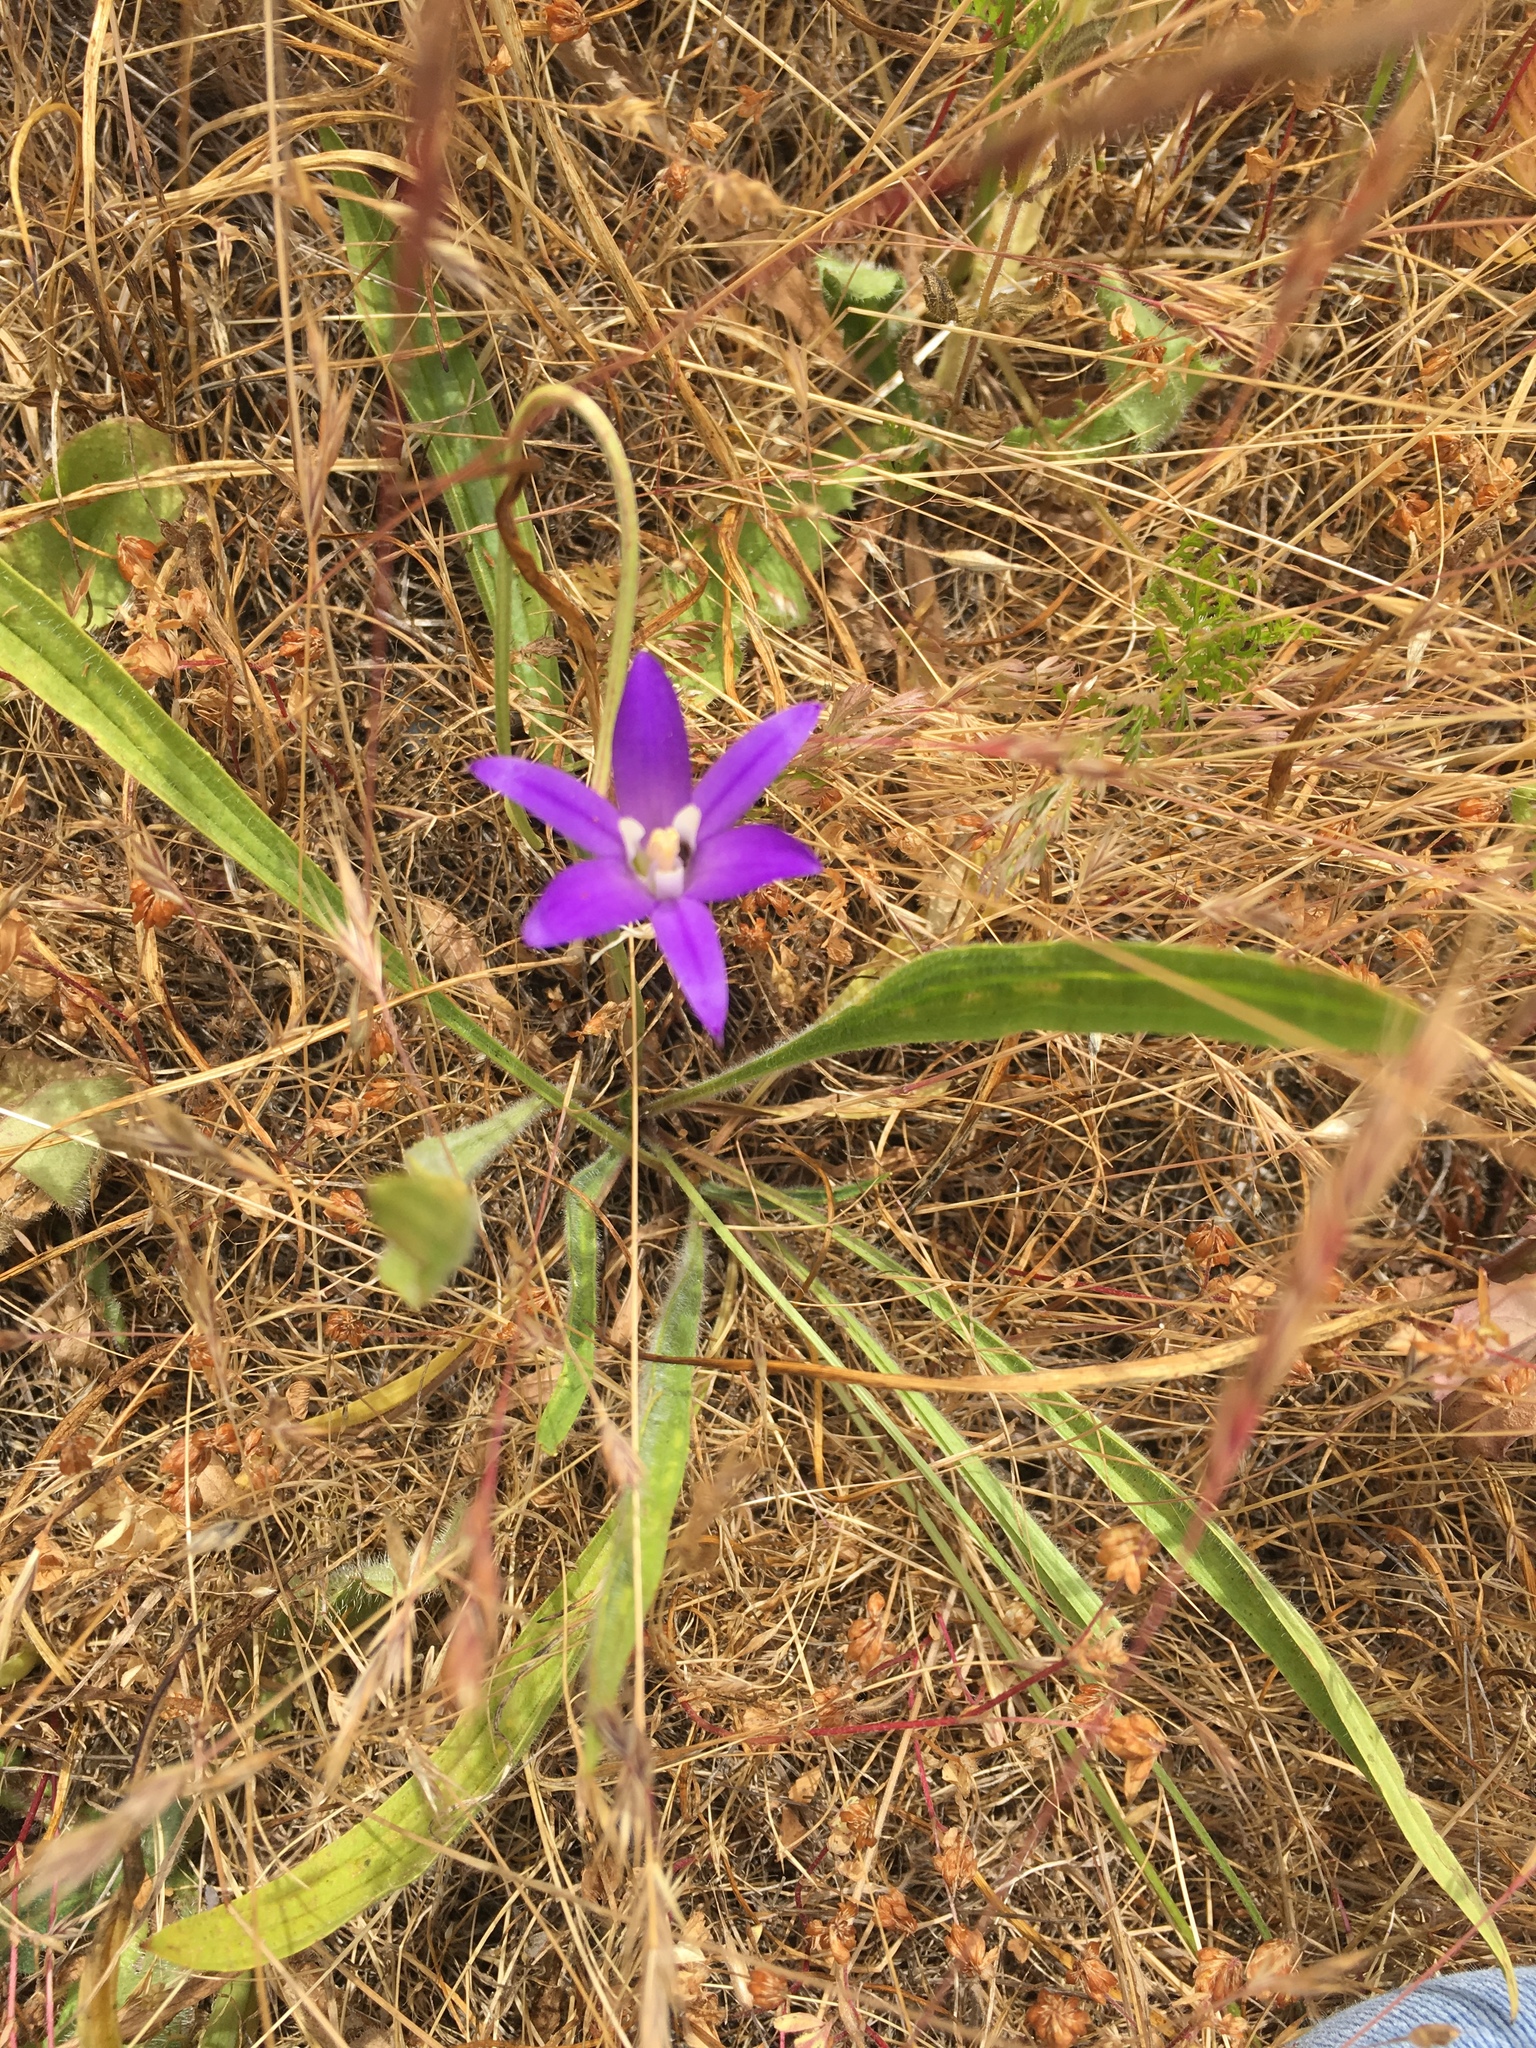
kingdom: Plantae
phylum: Tracheophyta
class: Liliopsida
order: Asparagales
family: Asparagaceae
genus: Brodiaea
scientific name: Brodiaea coronaria
